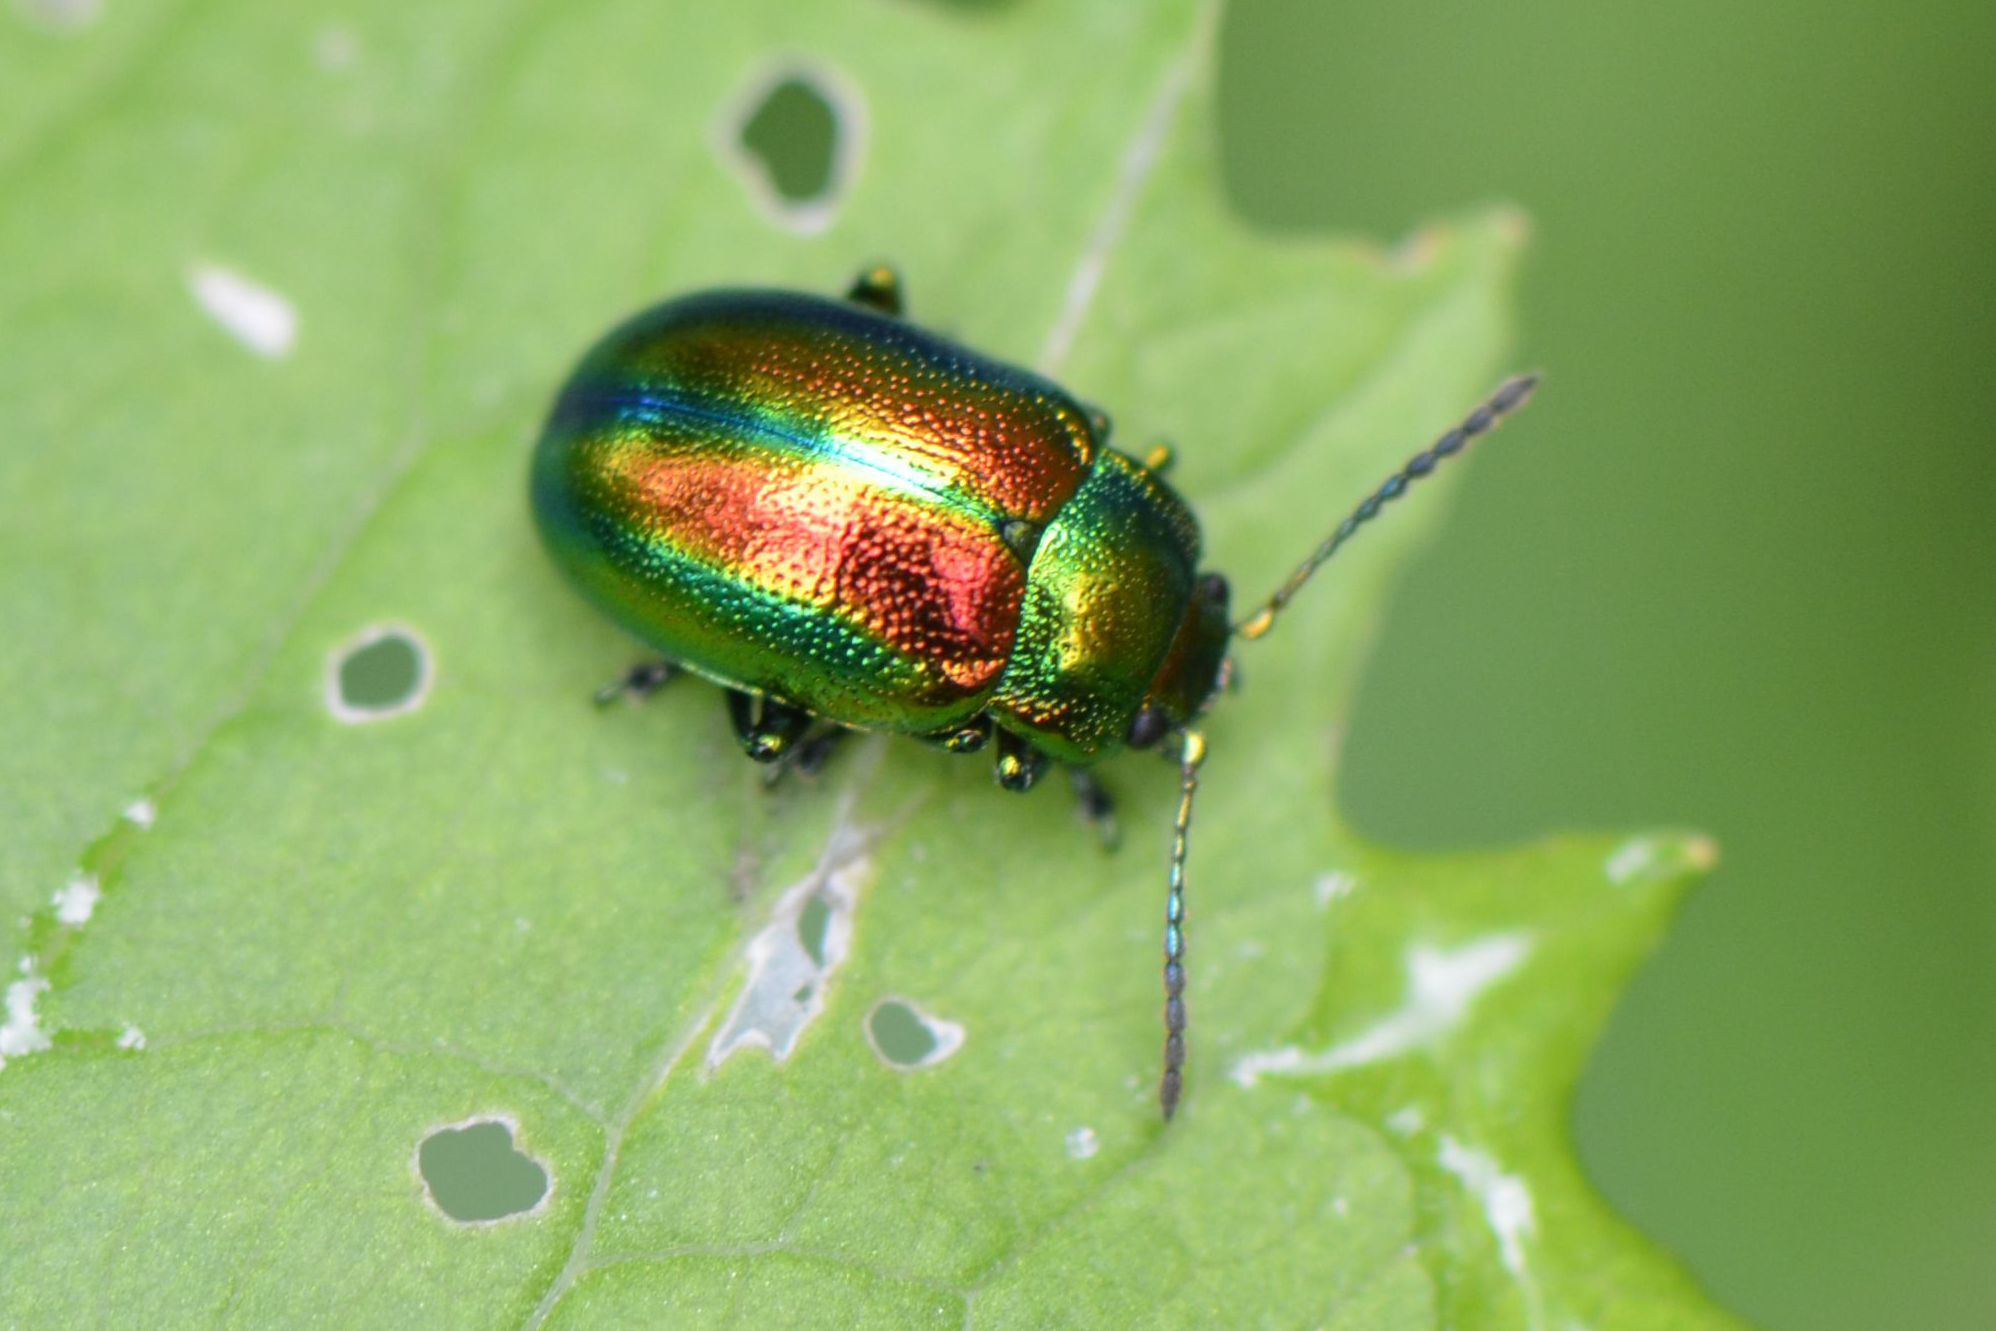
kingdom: Animalia
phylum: Arthropoda
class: Insecta
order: Coleoptera
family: Chrysomelidae
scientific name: Chrysomelidae
